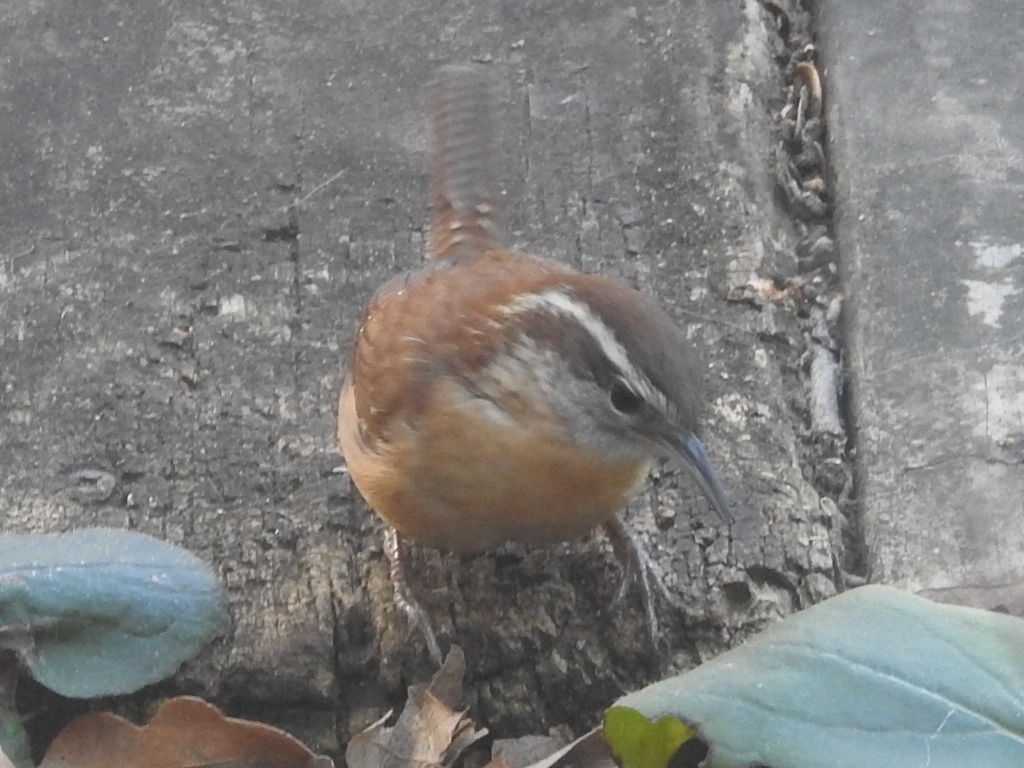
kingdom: Animalia
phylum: Chordata
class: Aves
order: Passeriformes
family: Troglodytidae
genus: Thryothorus
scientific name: Thryothorus ludovicianus
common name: Carolina wren
